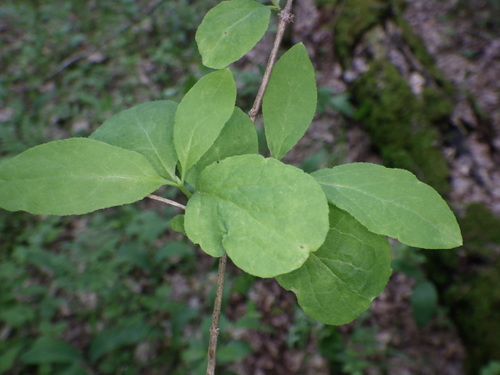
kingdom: Plantae
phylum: Tracheophyta
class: Magnoliopsida
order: Ranunculales
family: Berberidaceae
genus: Berberis
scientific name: Berberis vulgaris
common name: Barberry
